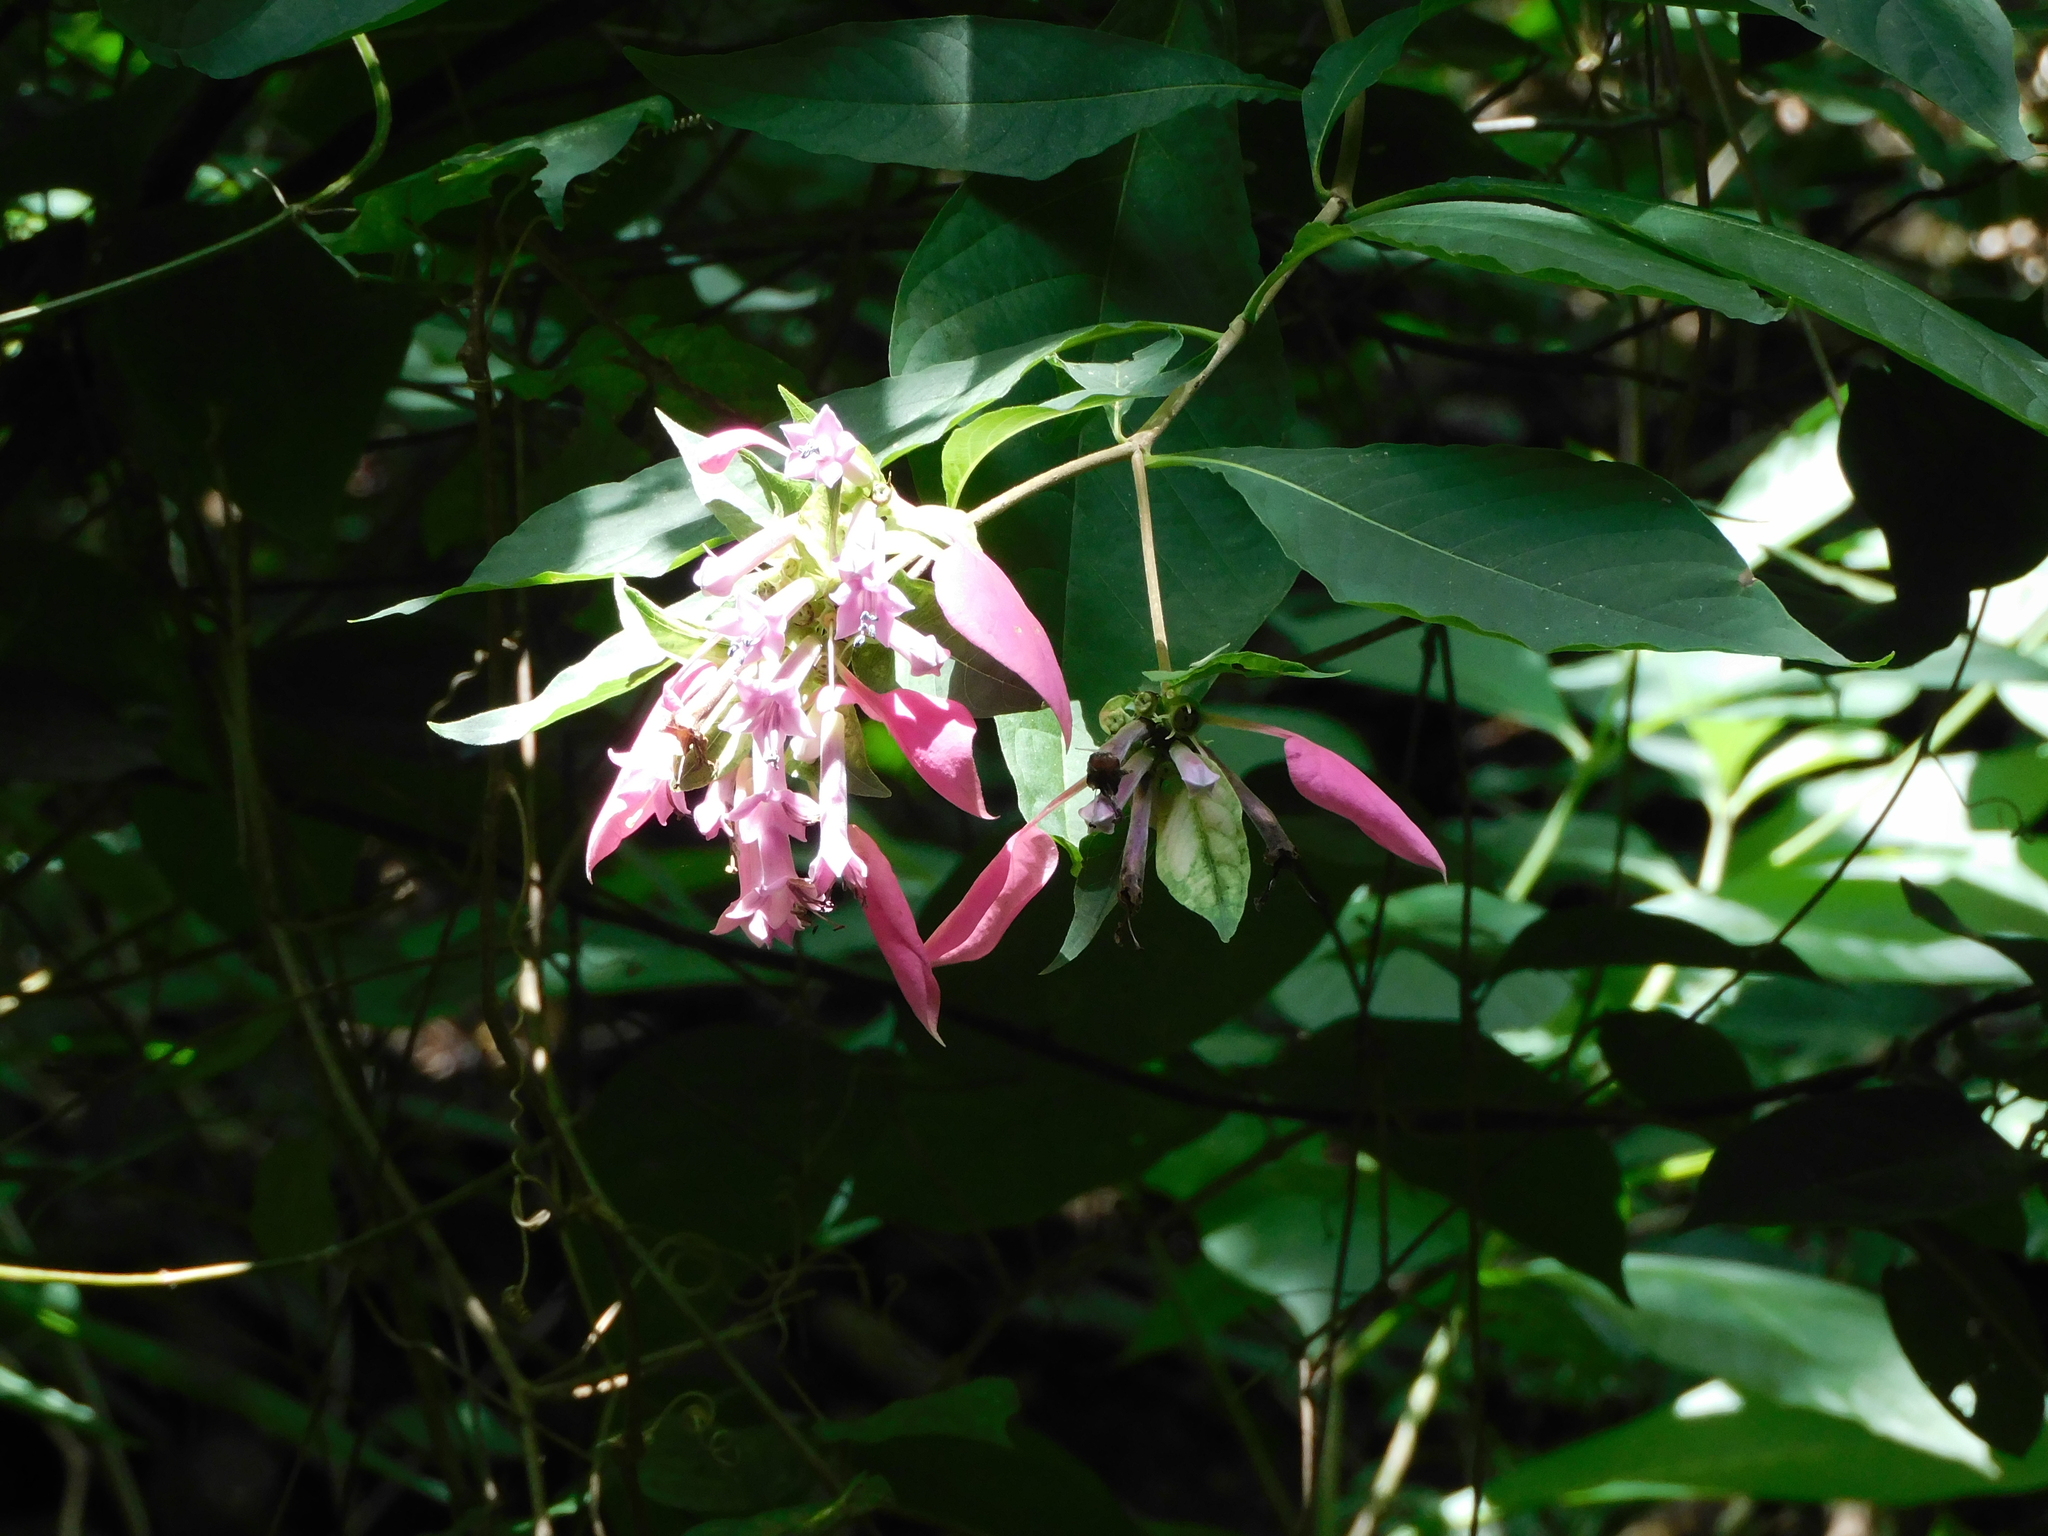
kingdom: Plantae
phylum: Tracheophyta
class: Magnoliopsida
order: Gentianales
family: Rubiaceae
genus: Pogonopus
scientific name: Pogonopus exsertus
